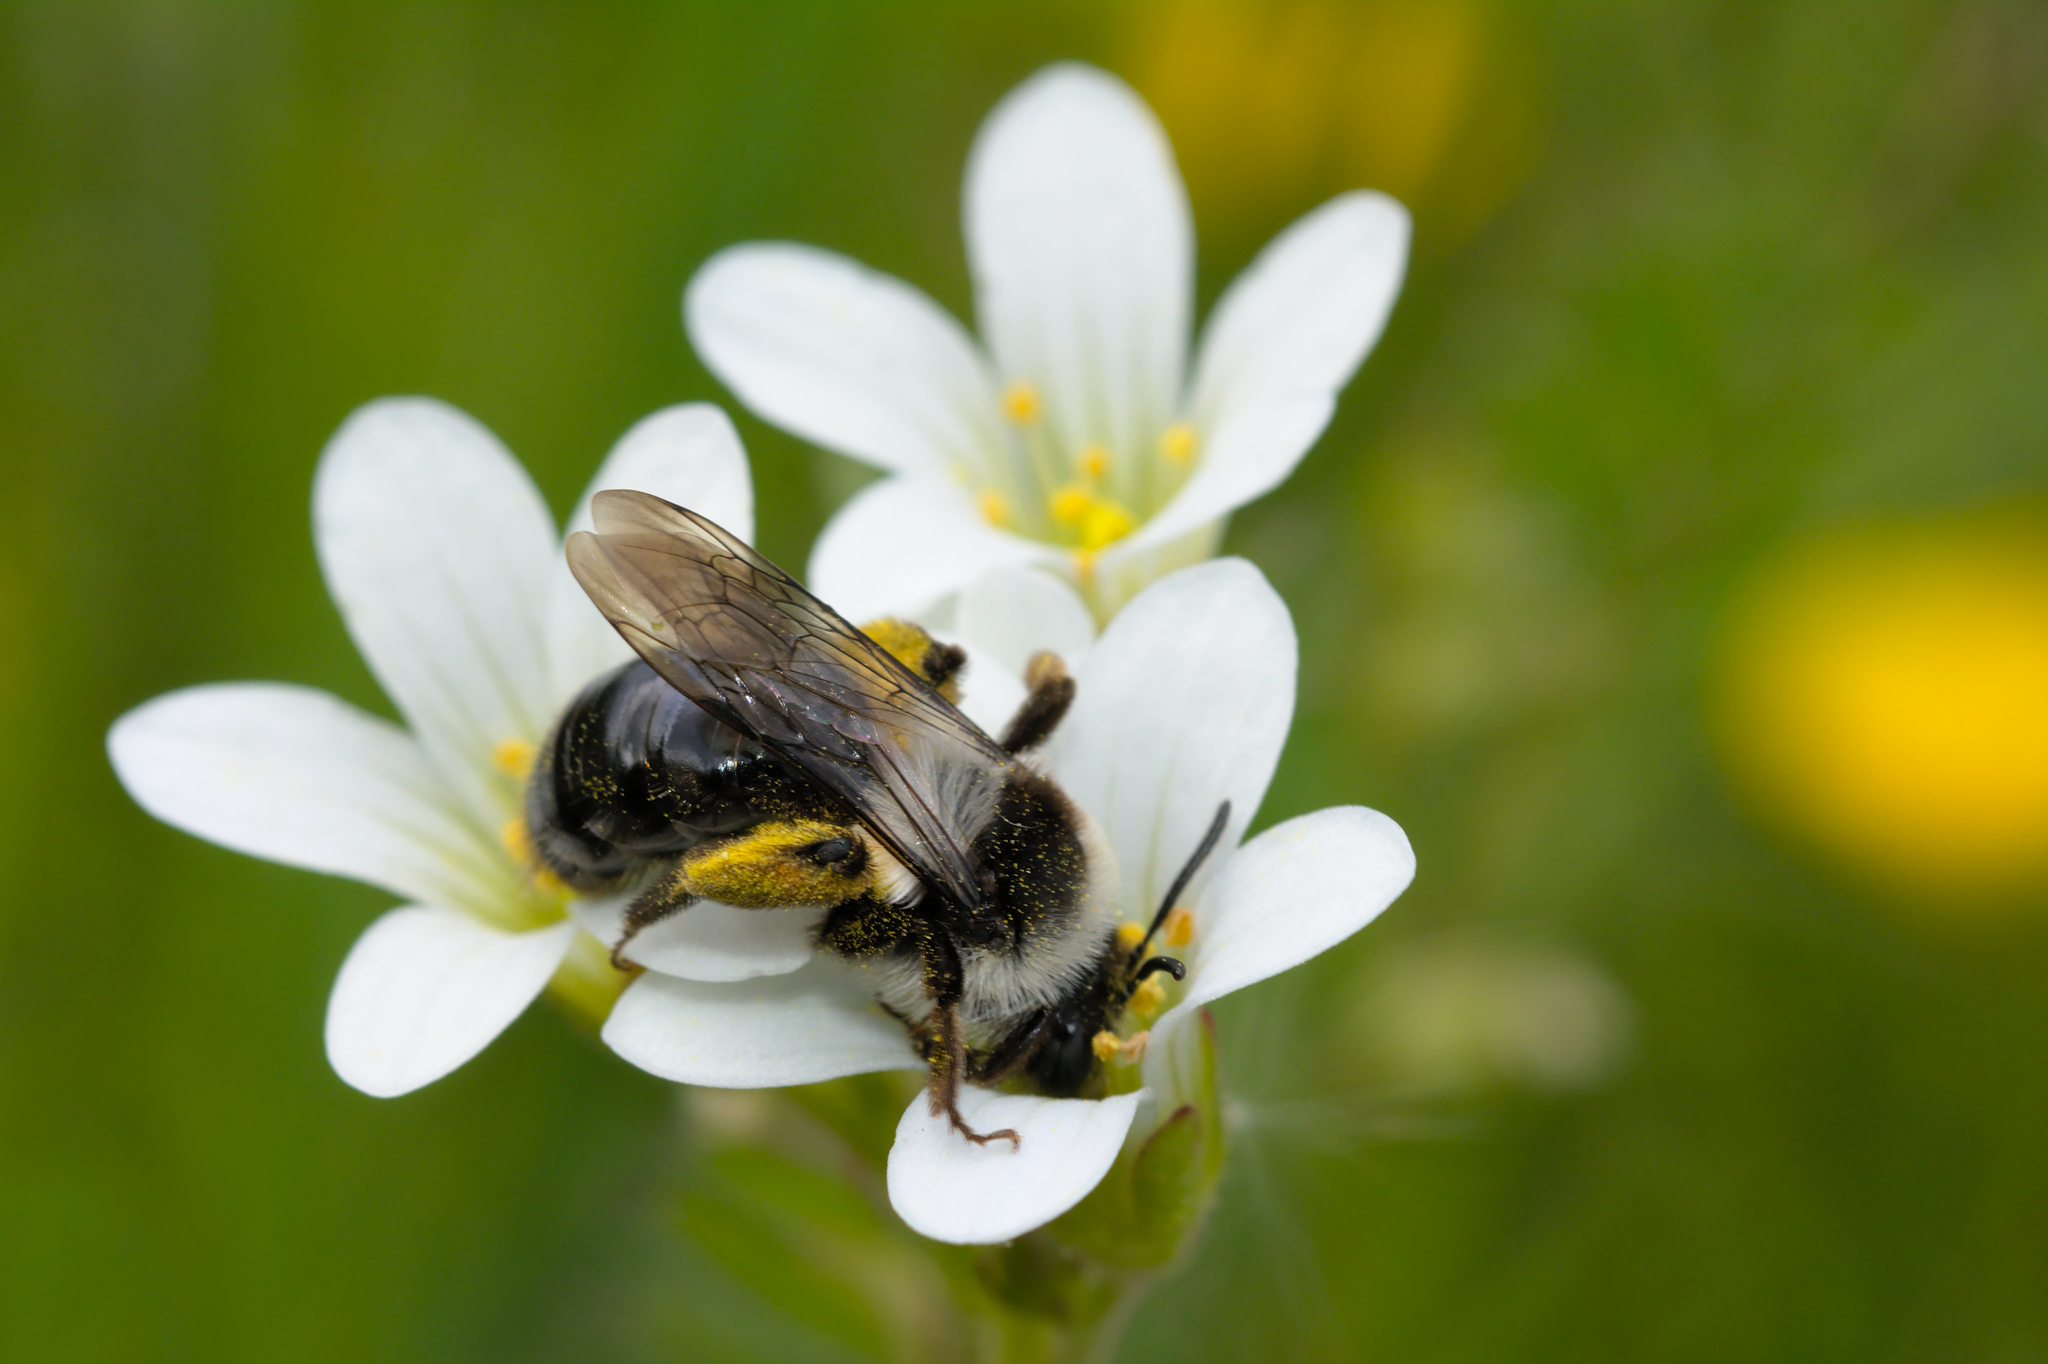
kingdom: Animalia
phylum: Arthropoda
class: Insecta
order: Hymenoptera
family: Andrenidae
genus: Andrena
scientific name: Andrena cineraria
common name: Ashy mining bee
